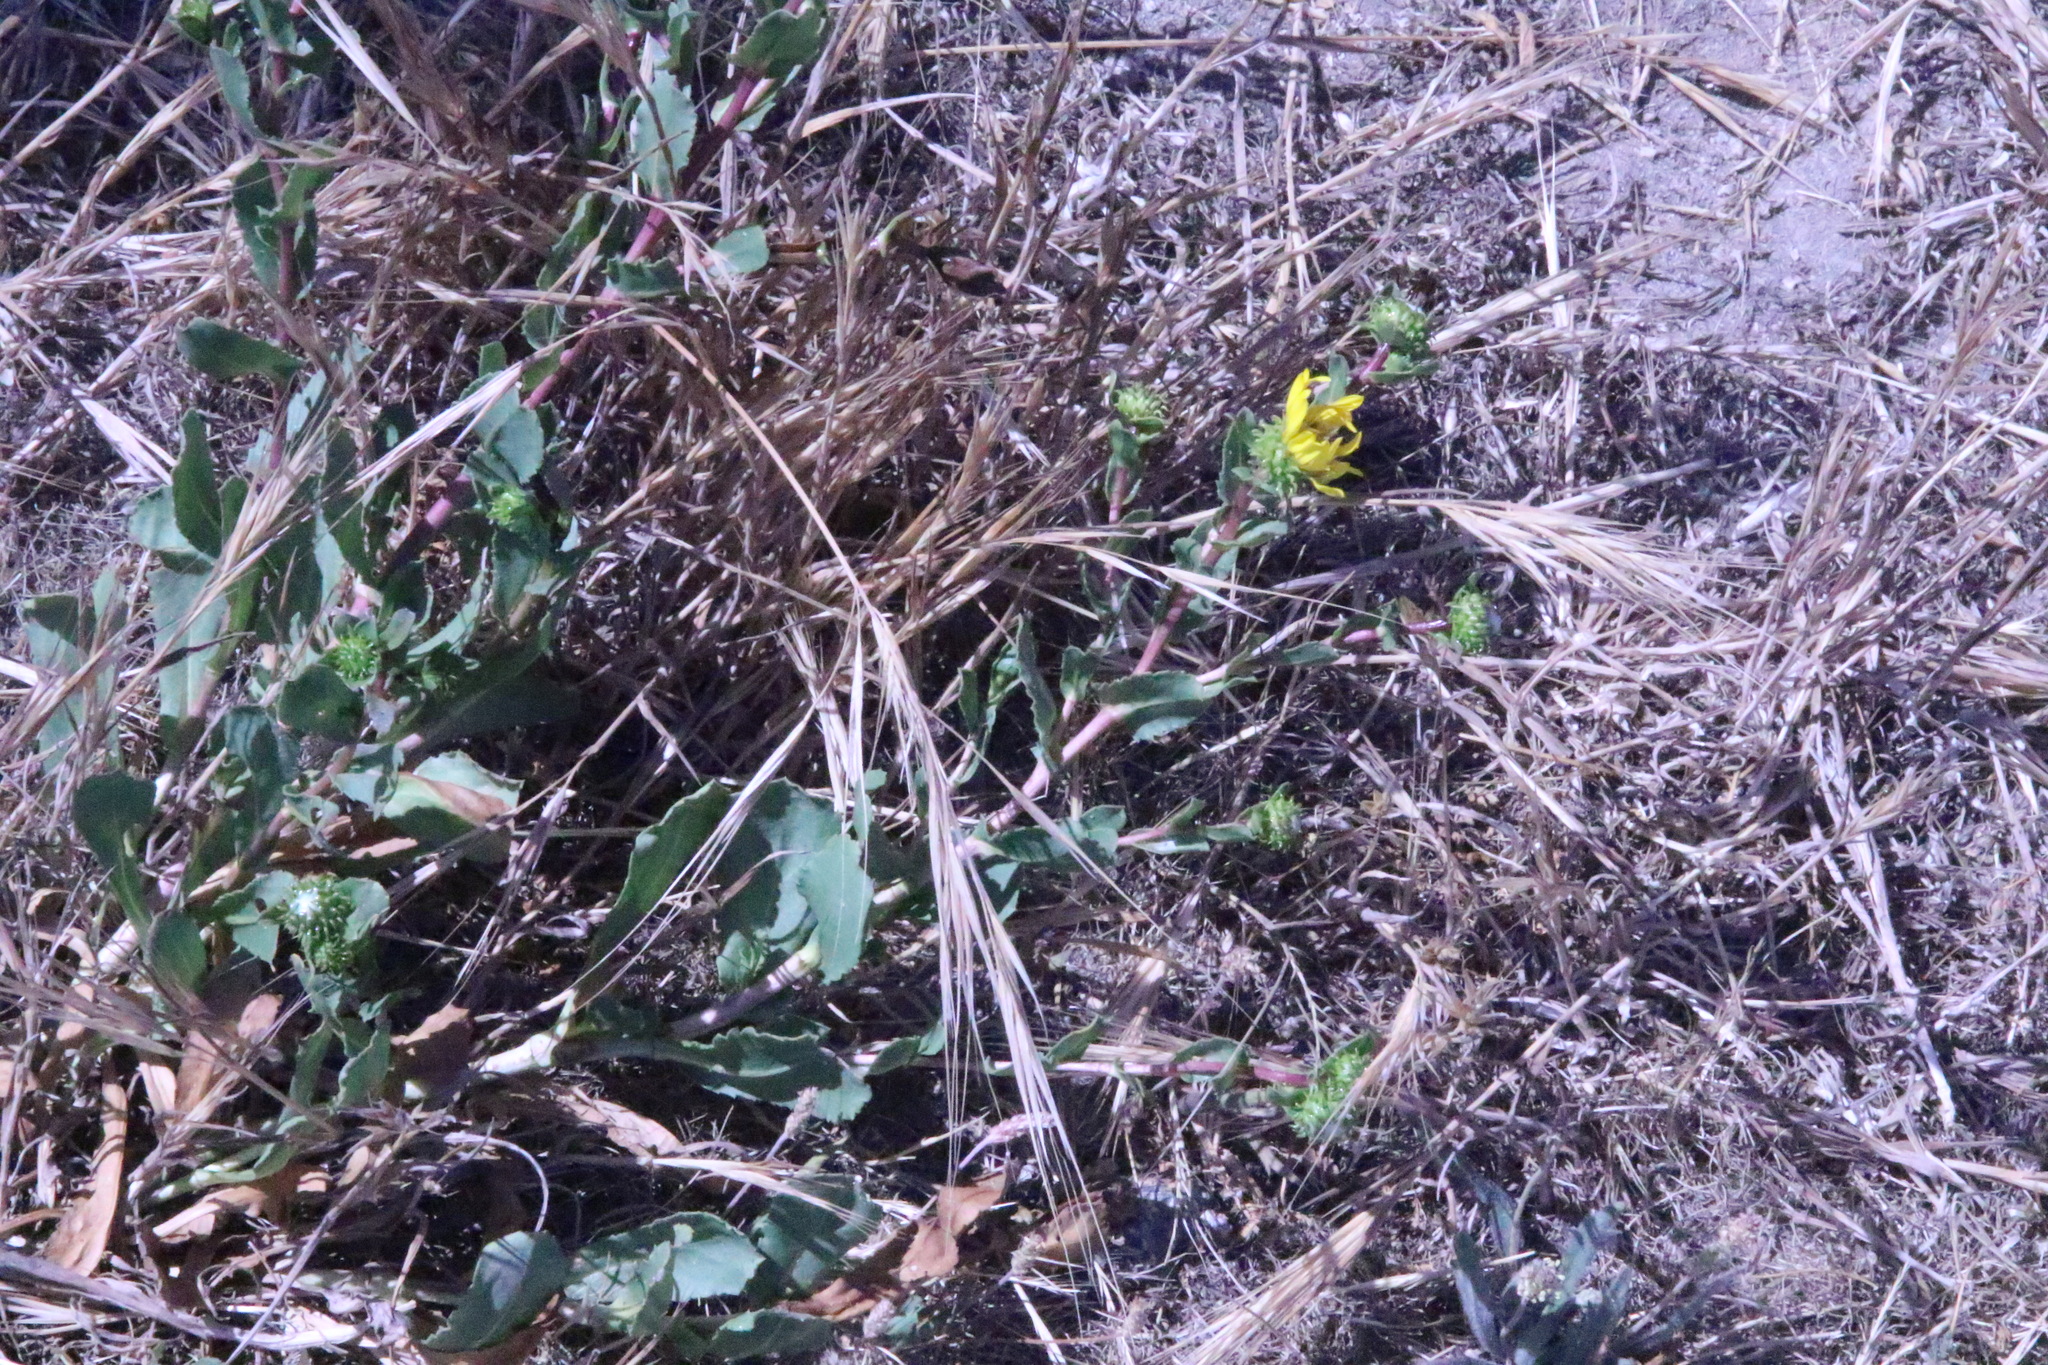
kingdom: Plantae
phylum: Tracheophyta
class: Magnoliopsida
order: Asterales
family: Asteraceae
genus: Grindelia
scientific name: Grindelia hirsutula
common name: Hairy gumweed
